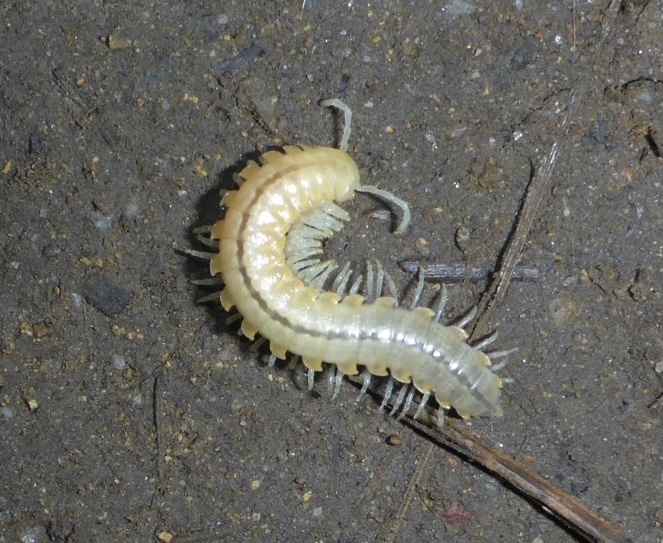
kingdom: Animalia
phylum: Arthropoda
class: Diplopoda
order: Polydesmida
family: Xystodesmidae
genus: Xystocheir
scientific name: Xystocheir dissecta
